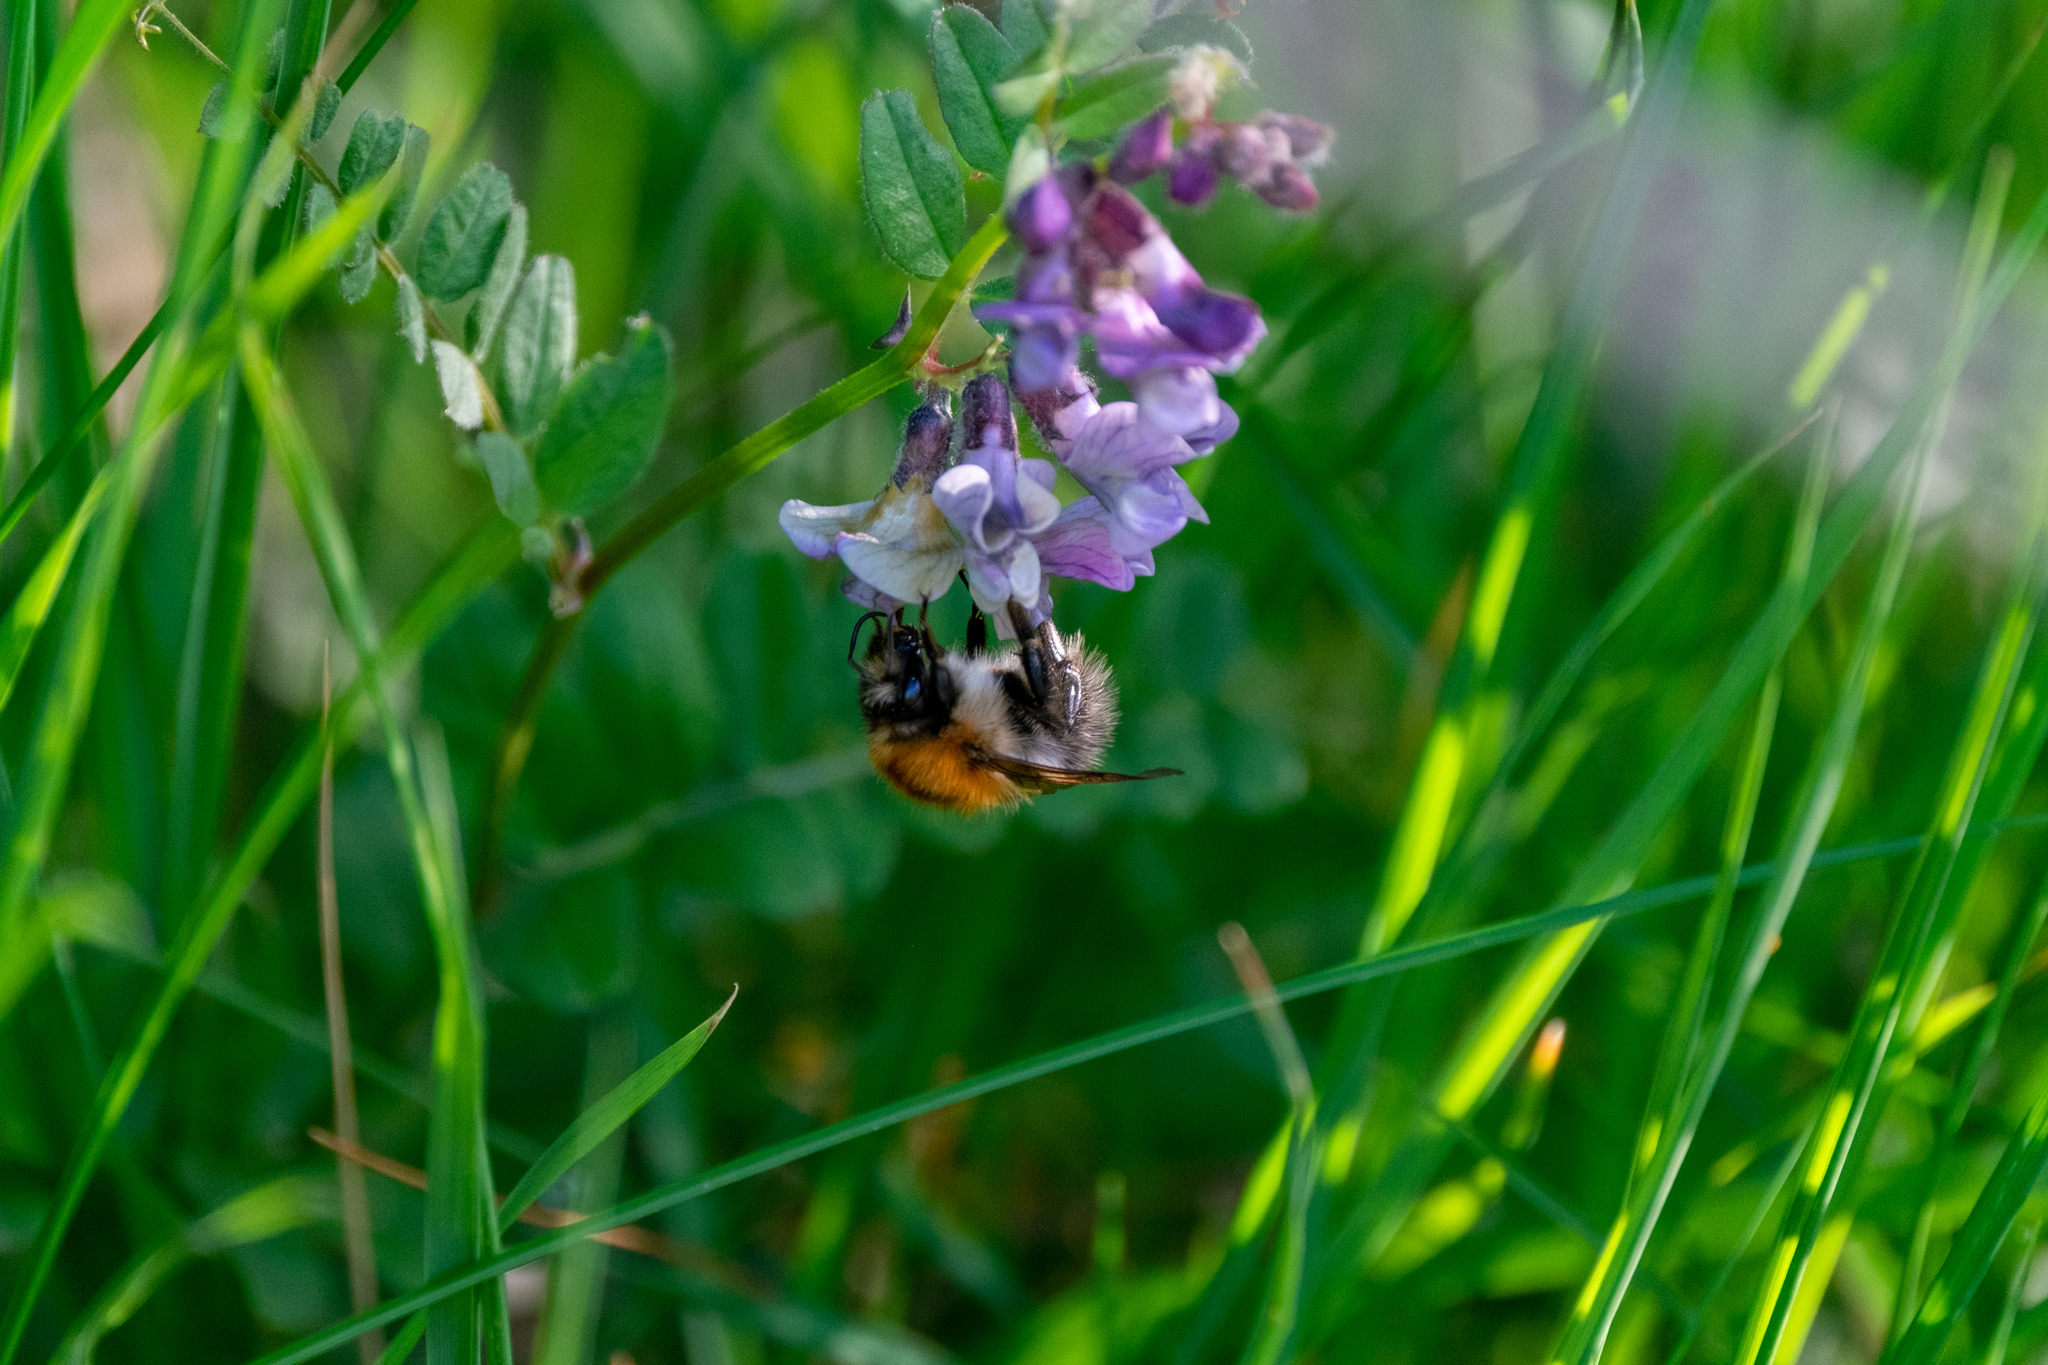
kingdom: Animalia
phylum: Arthropoda
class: Insecta
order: Hymenoptera
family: Apidae
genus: Bombus
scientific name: Bombus pascuorum
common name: Common carder bee
